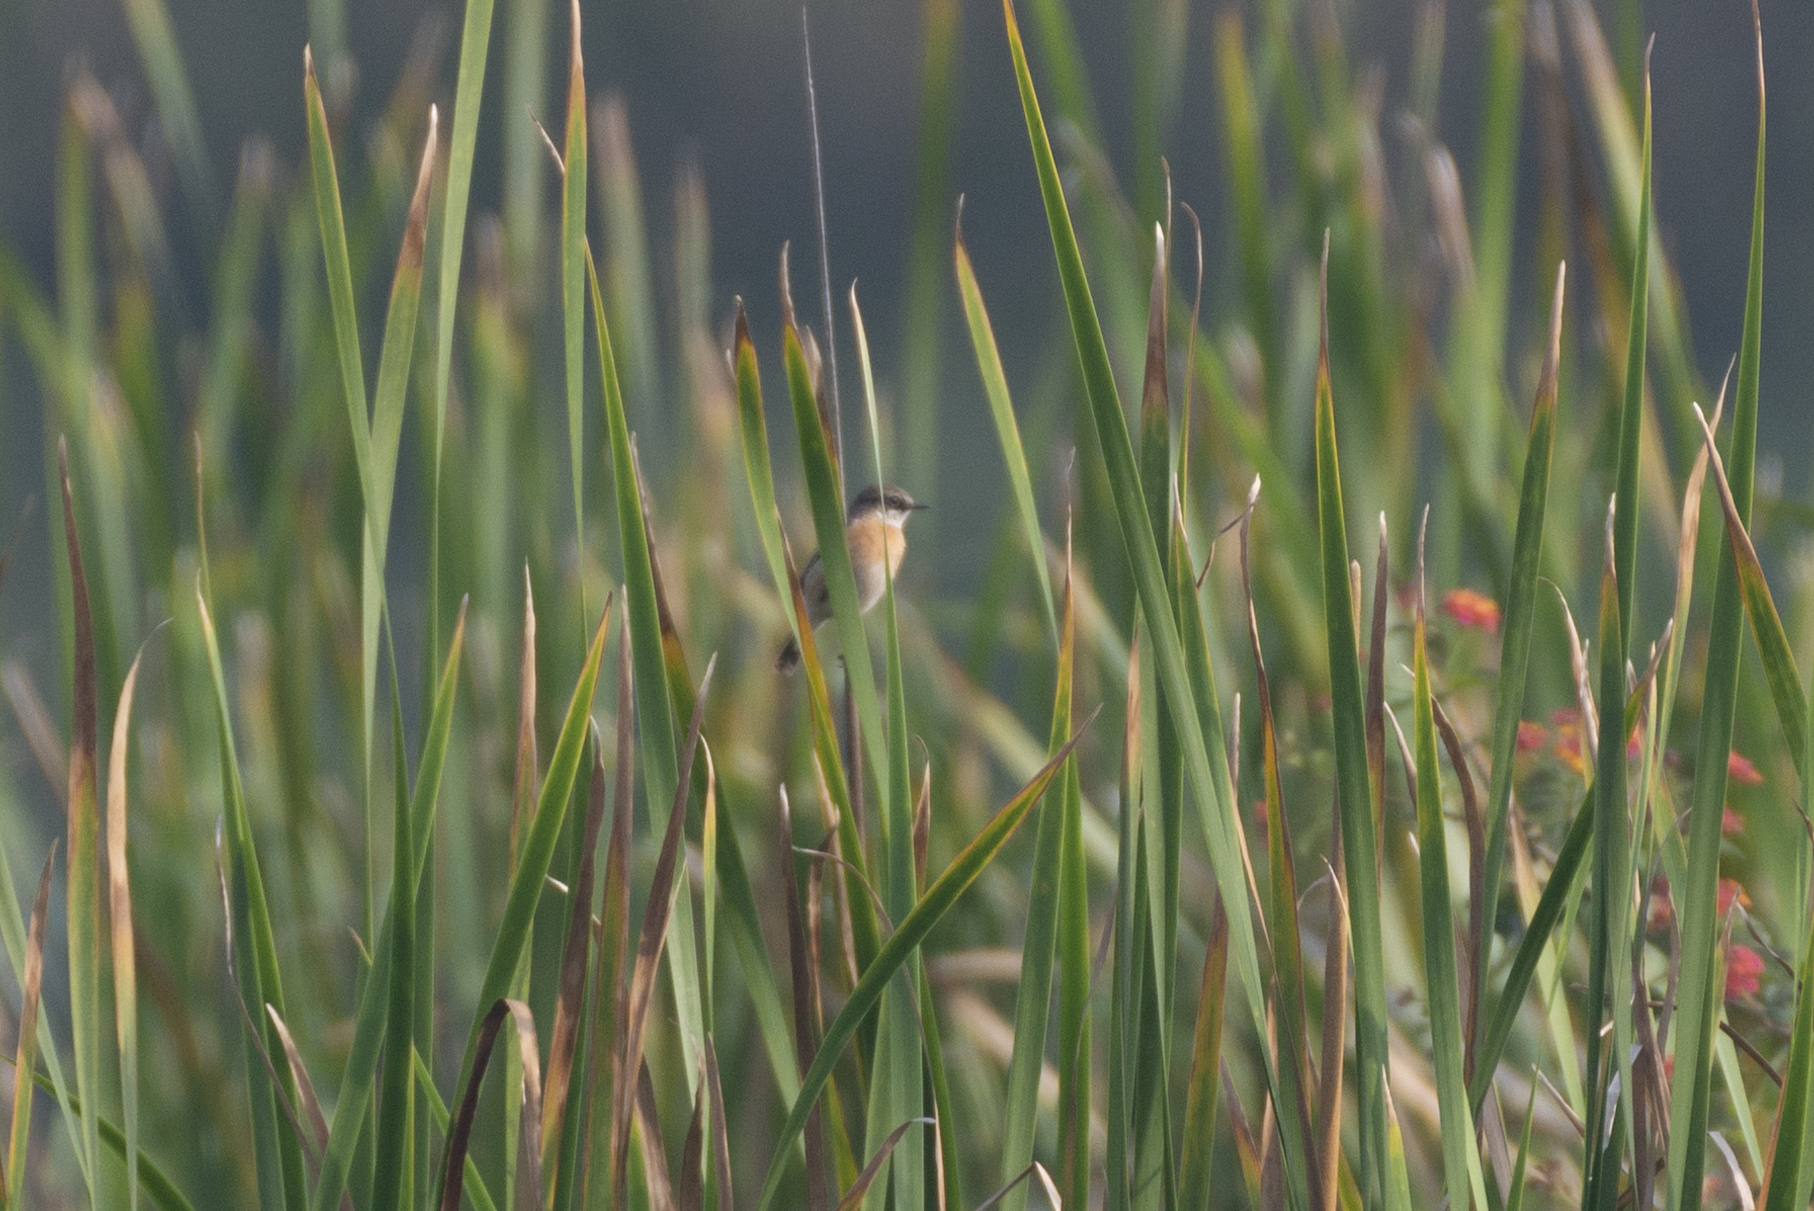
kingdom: Animalia
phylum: Chordata
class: Aves
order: Passeriformes
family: Muscicapidae
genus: Saxicola
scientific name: Saxicola stejnegeri
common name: Stejneger's stonechat
